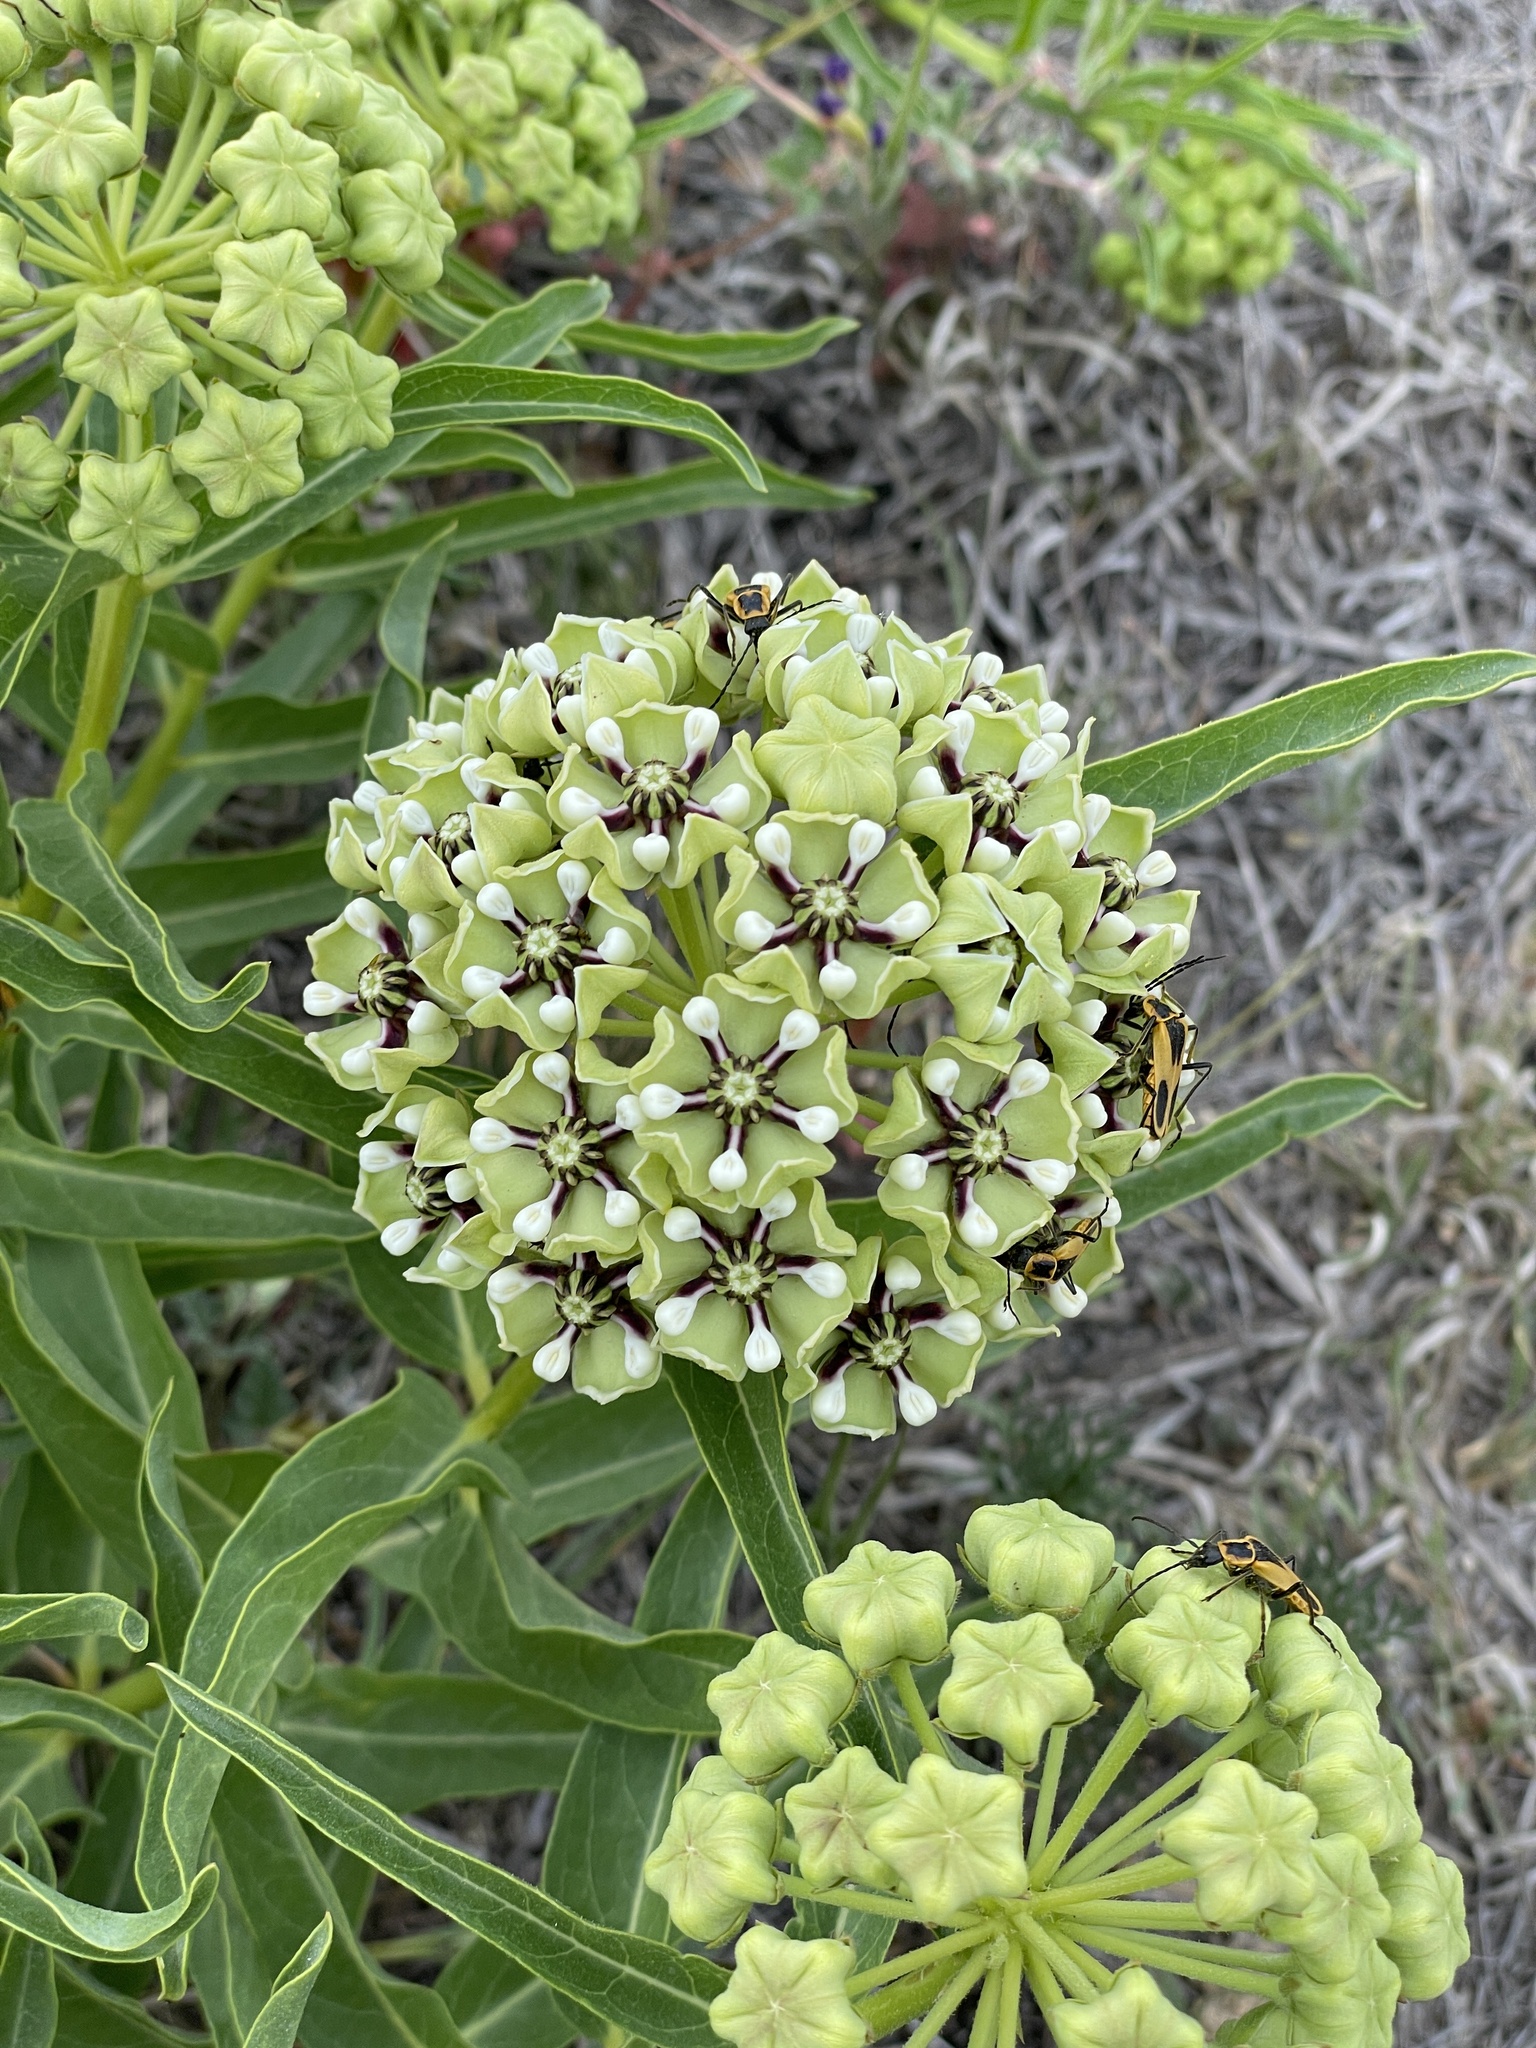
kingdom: Plantae
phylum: Tracheophyta
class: Magnoliopsida
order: Gentianales
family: Apocynaceae
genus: Asclepias
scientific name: Asclepias asperula
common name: Antelope horns
